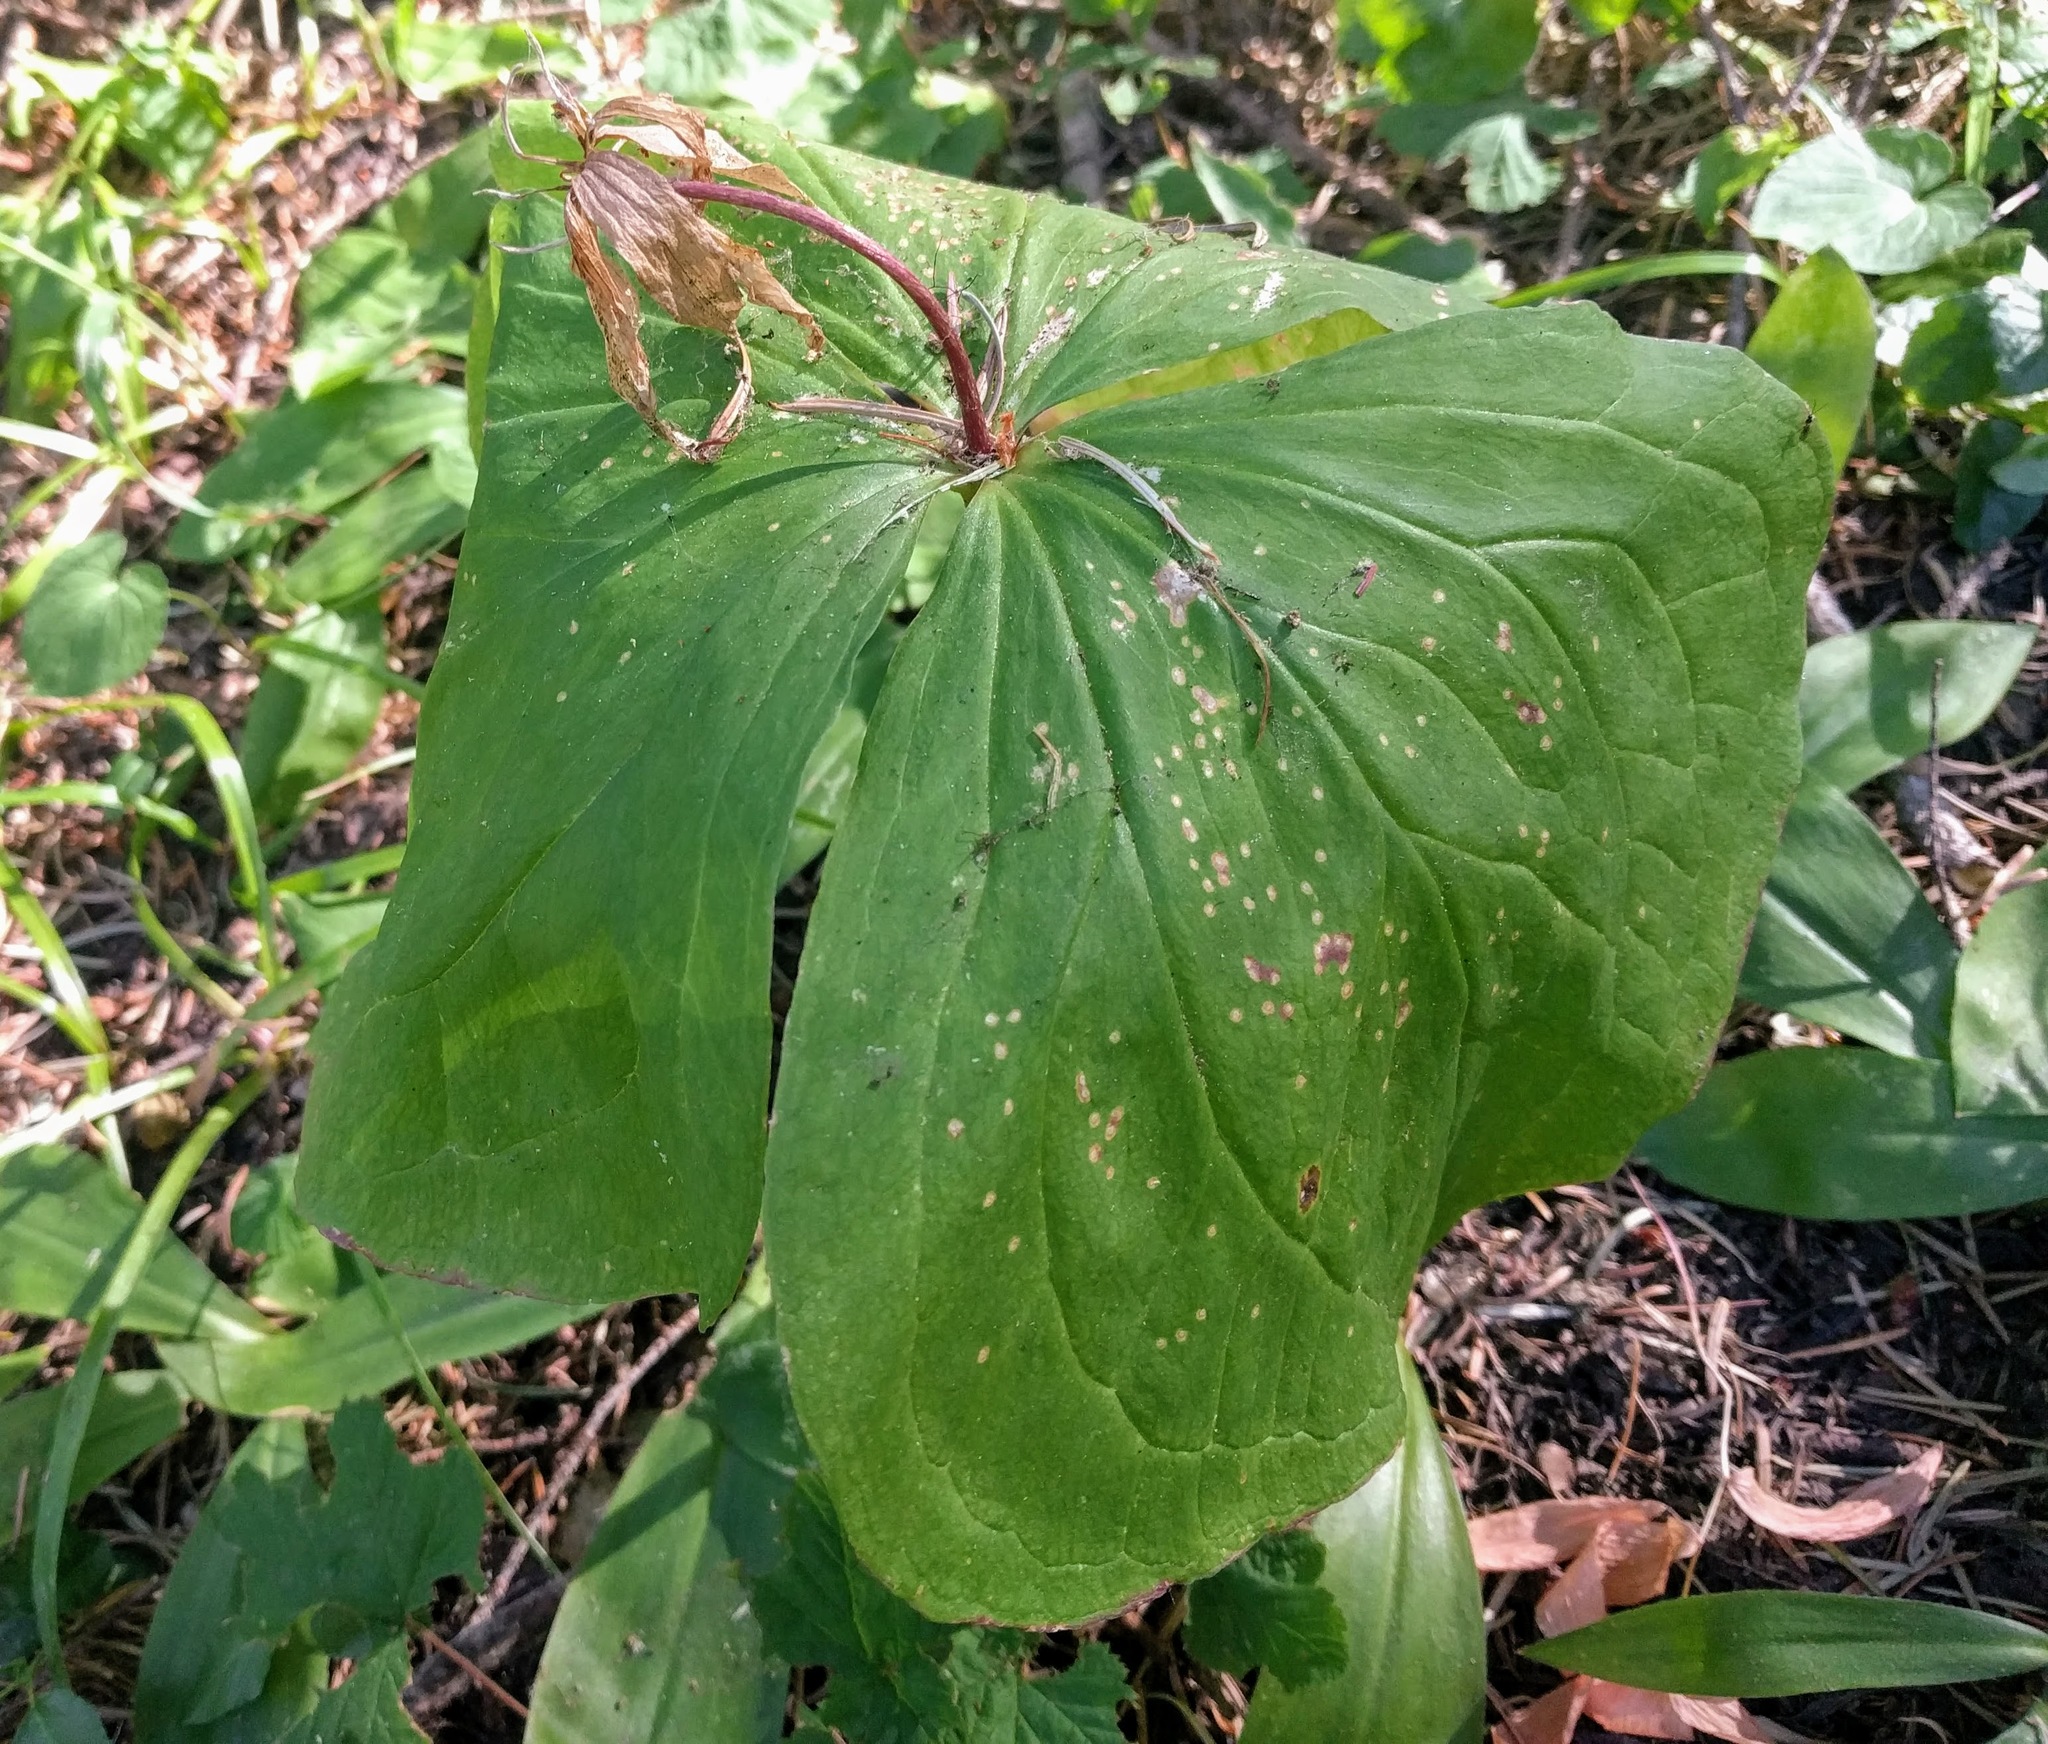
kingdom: Plantae
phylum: Tracheophyta
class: Liliopsida
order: Liliales
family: Melanthiaceae
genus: Trillium
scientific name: Trillium ovatum
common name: Pacific trillium
